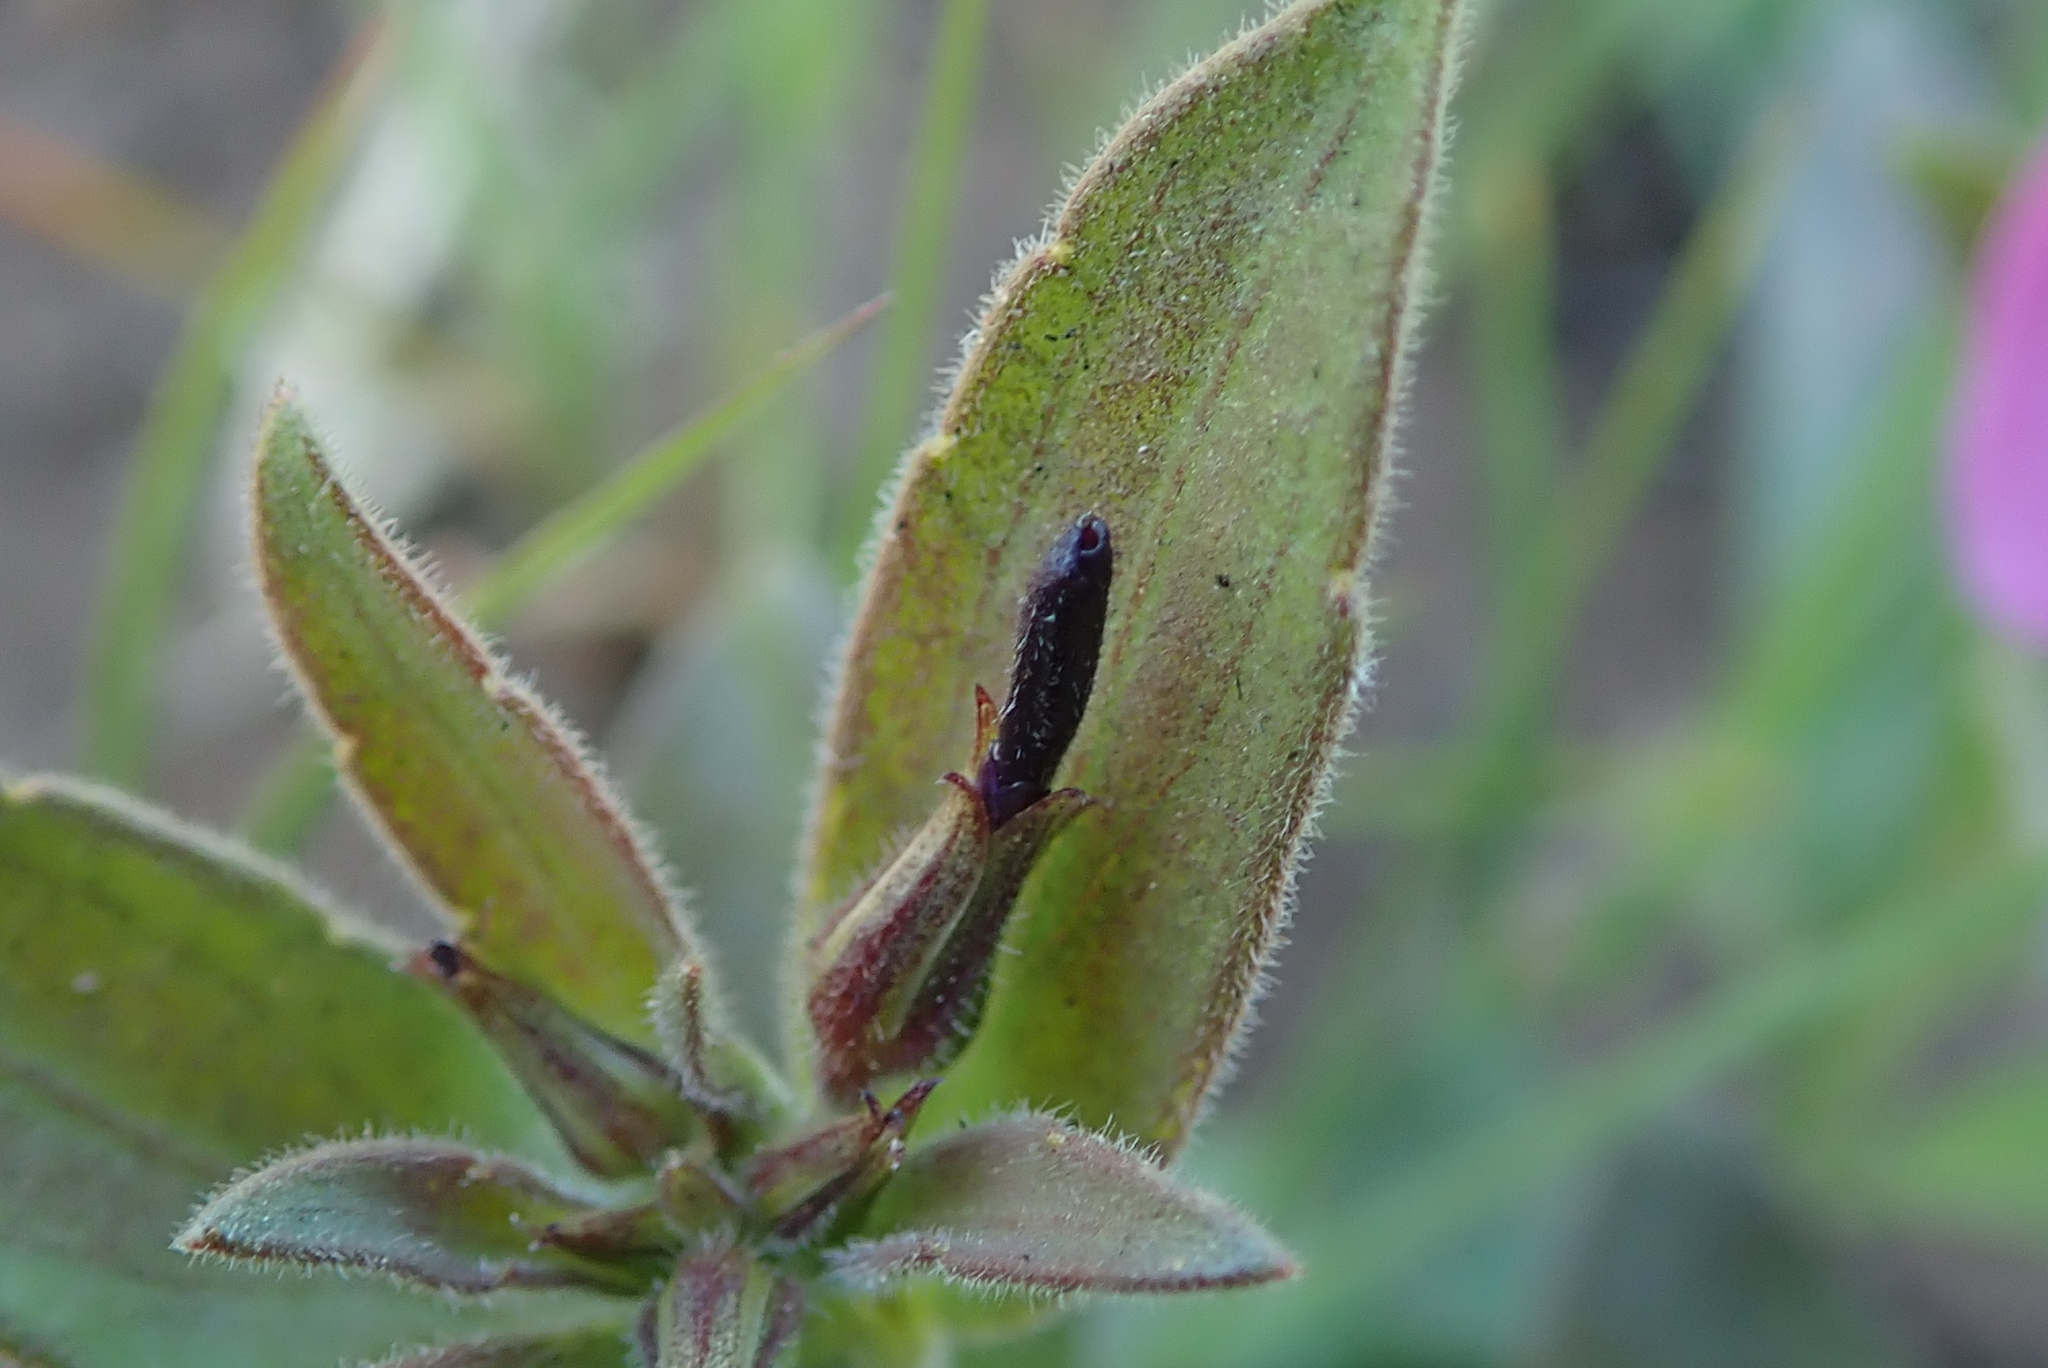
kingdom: Plantae
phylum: Tracheophyta
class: Magnoliopsida
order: Malpighiales
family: Violaceae
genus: Pigea
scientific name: Pigea enneasperma
